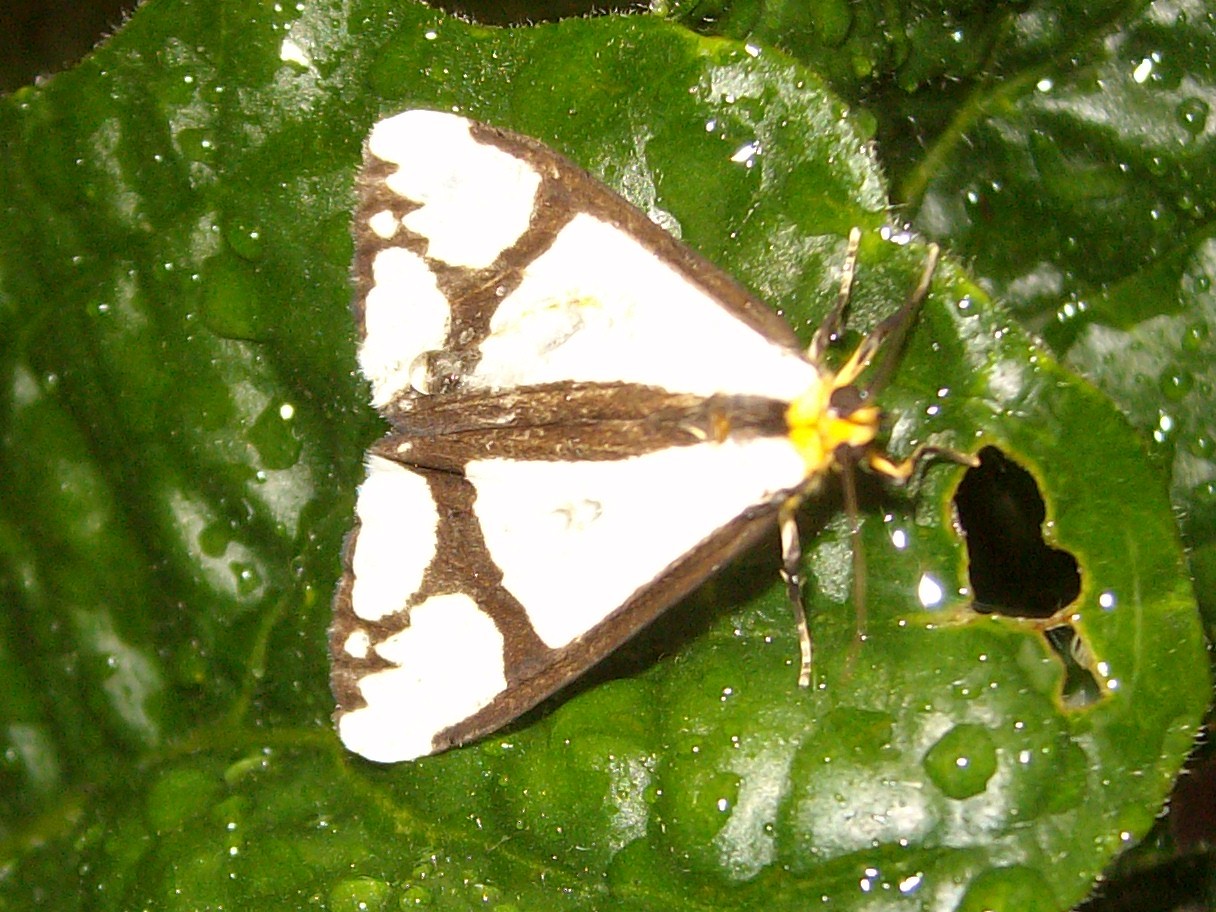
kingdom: Animalia
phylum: Arthropoda
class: Insecta
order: Lepidoptera
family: Erebidae
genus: Haploa
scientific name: Haploa contigua
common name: Neighbor moth
